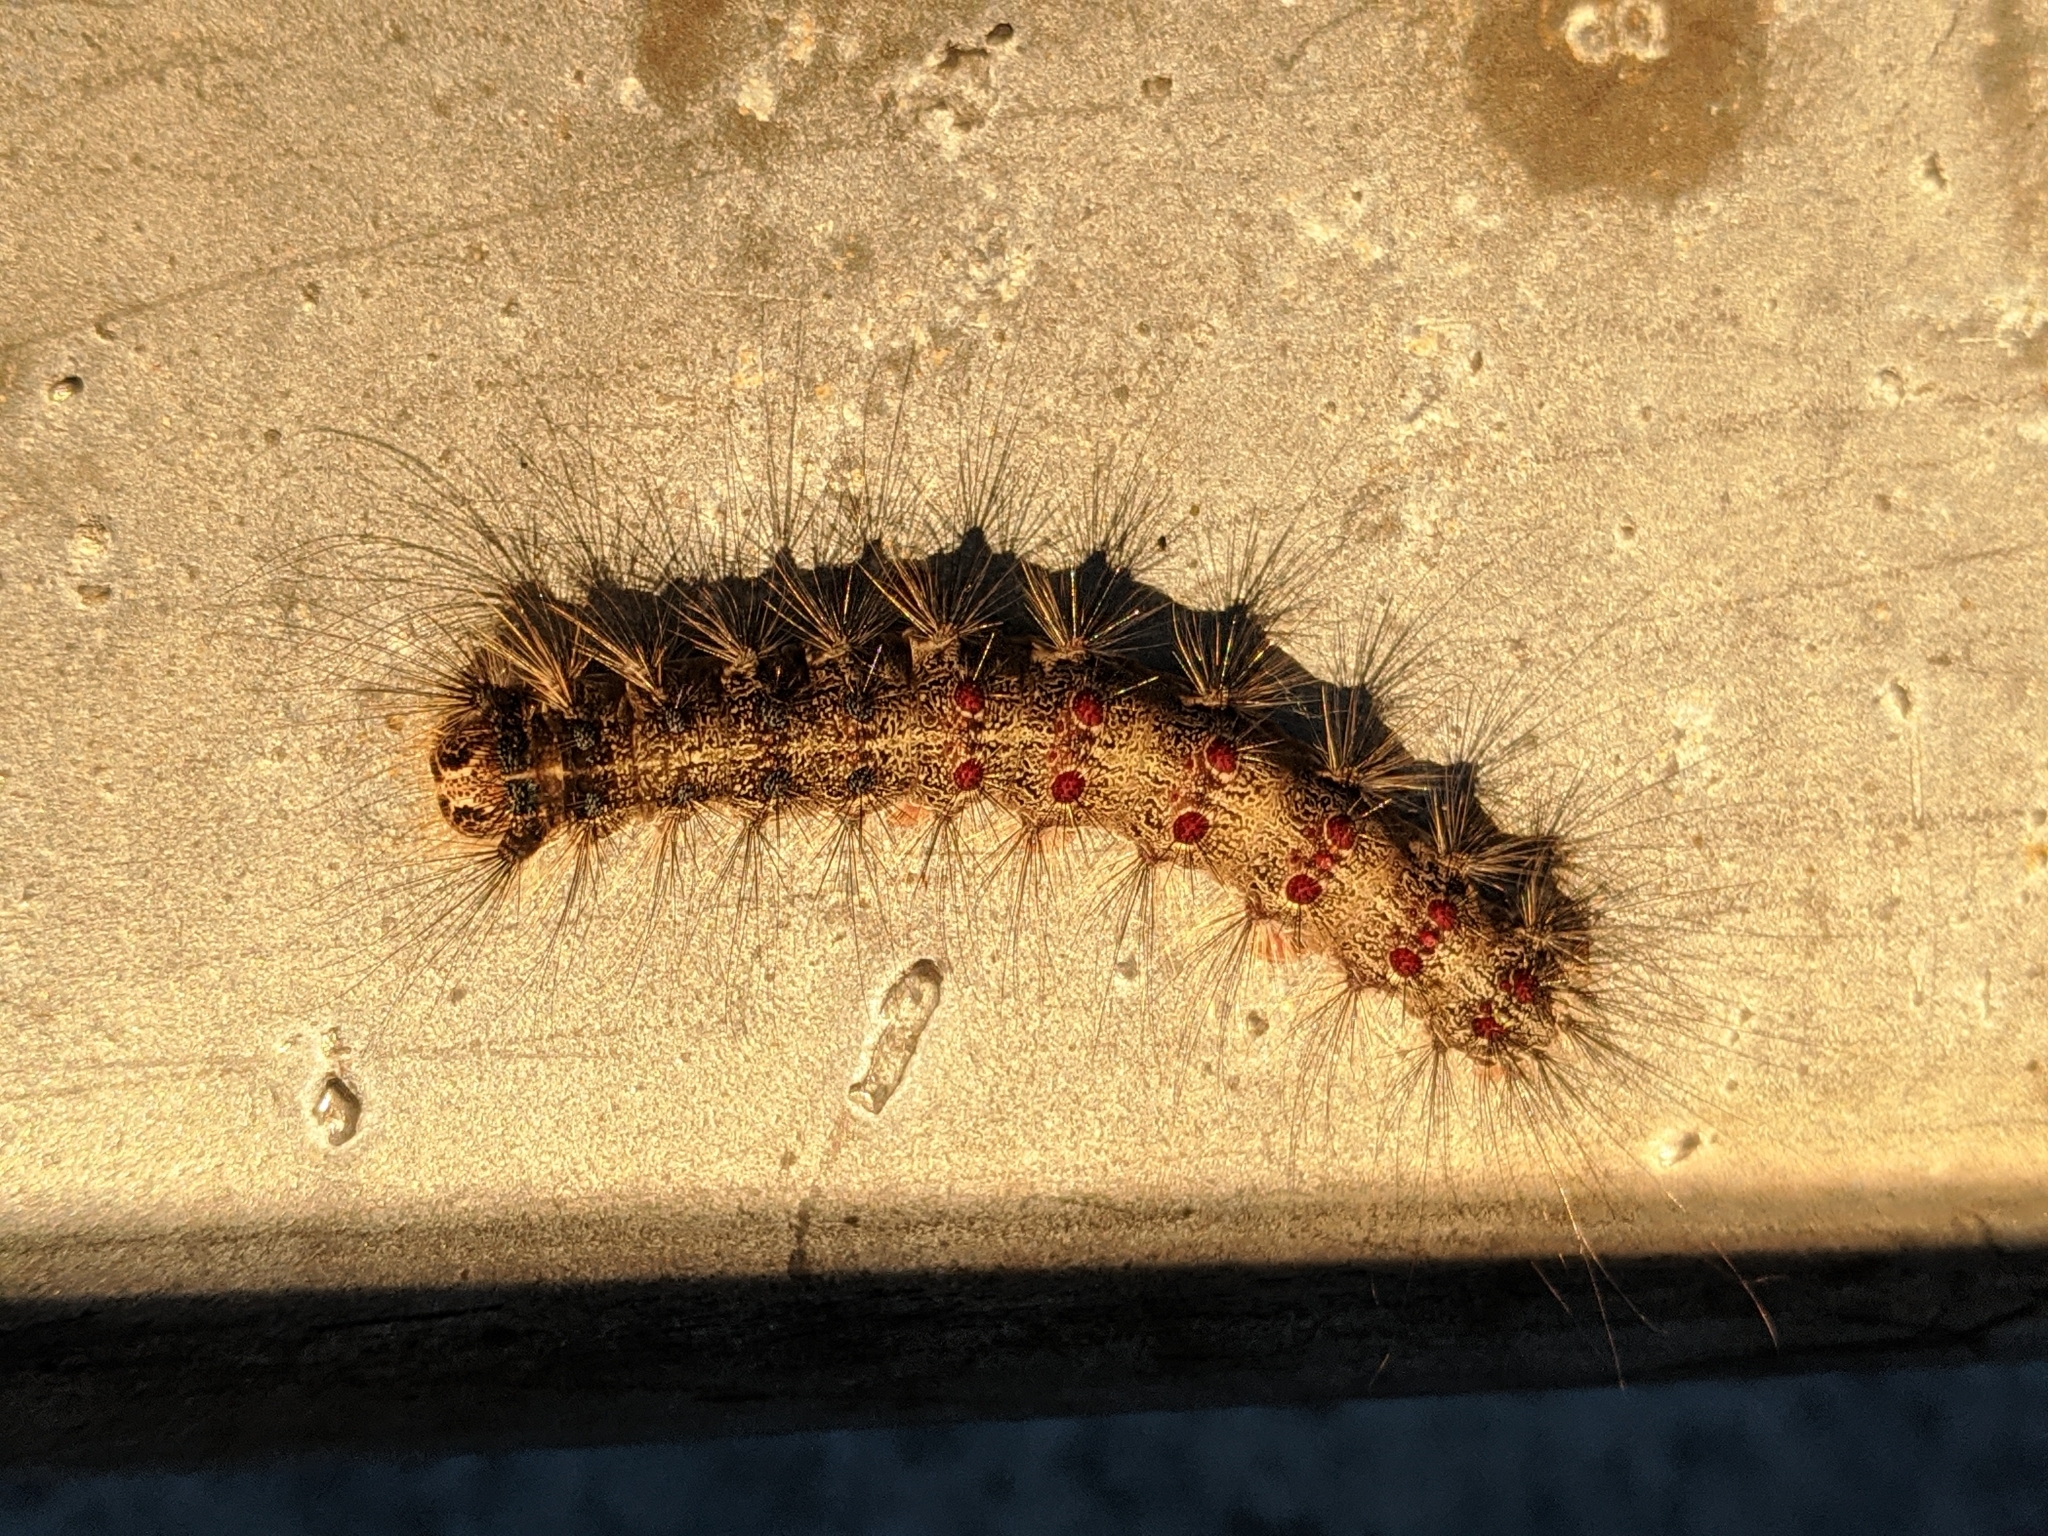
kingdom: Animalia
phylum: Arthropoda
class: Insecta
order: Lepidoptera
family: Erebidae
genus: Lymantria
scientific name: Lymantria dispar
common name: Gypsy moth
